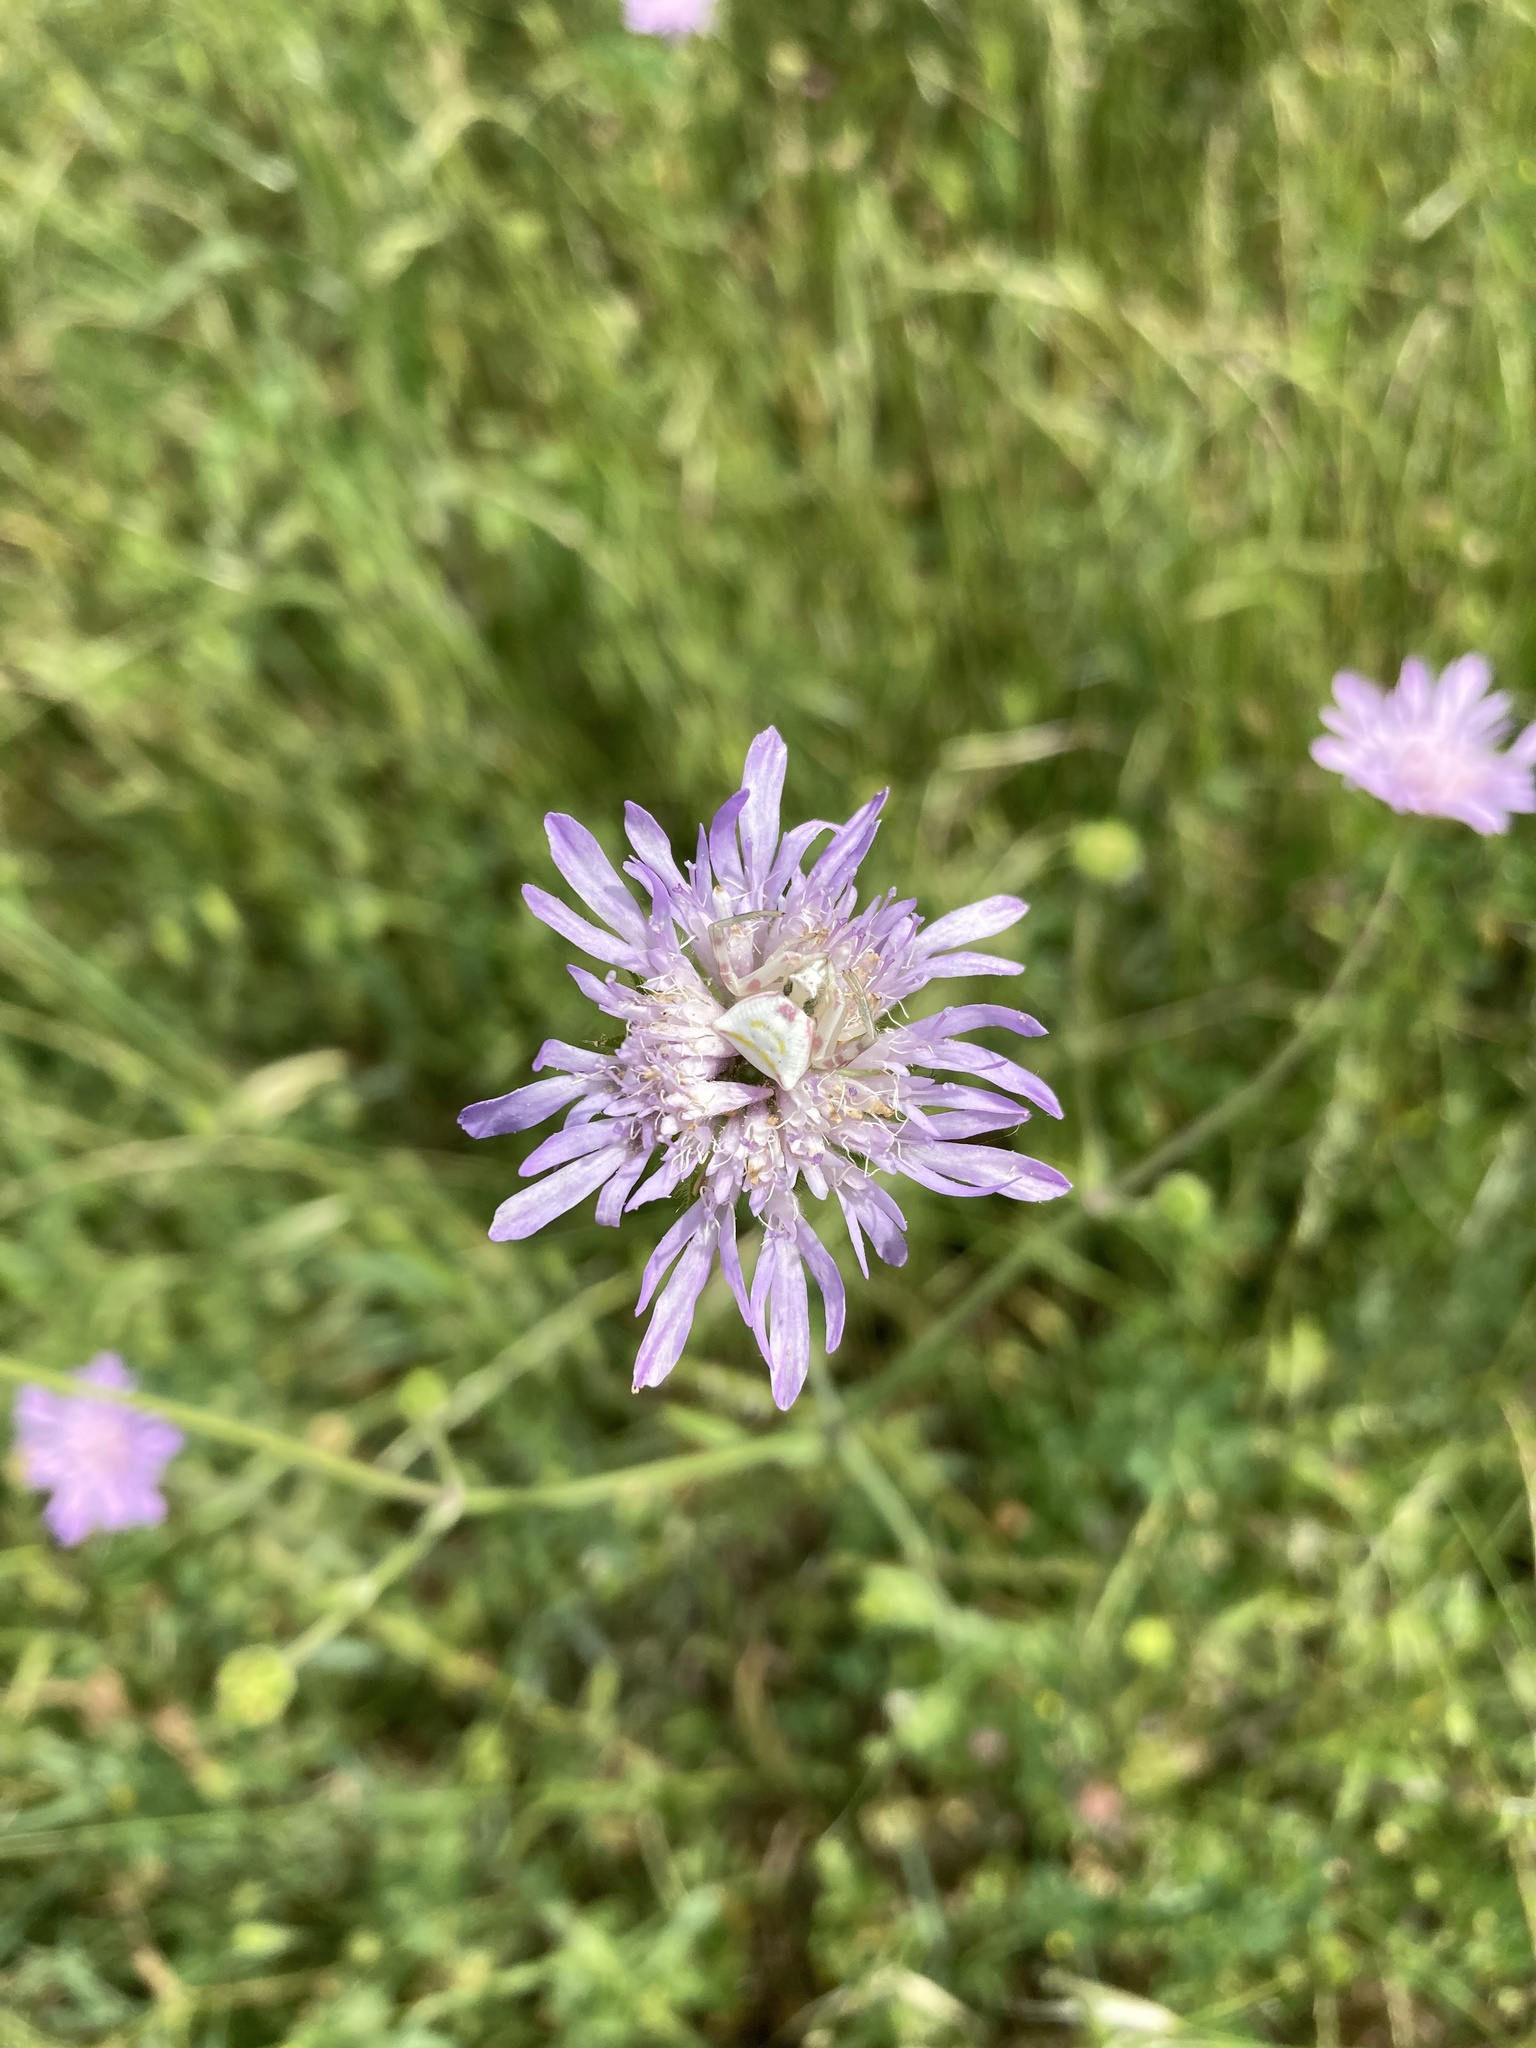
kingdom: Animalia
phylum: Arthropoda
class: Arachnida
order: Araneae
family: Thomisidae
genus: Thomisus
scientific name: Thomisus onustus
